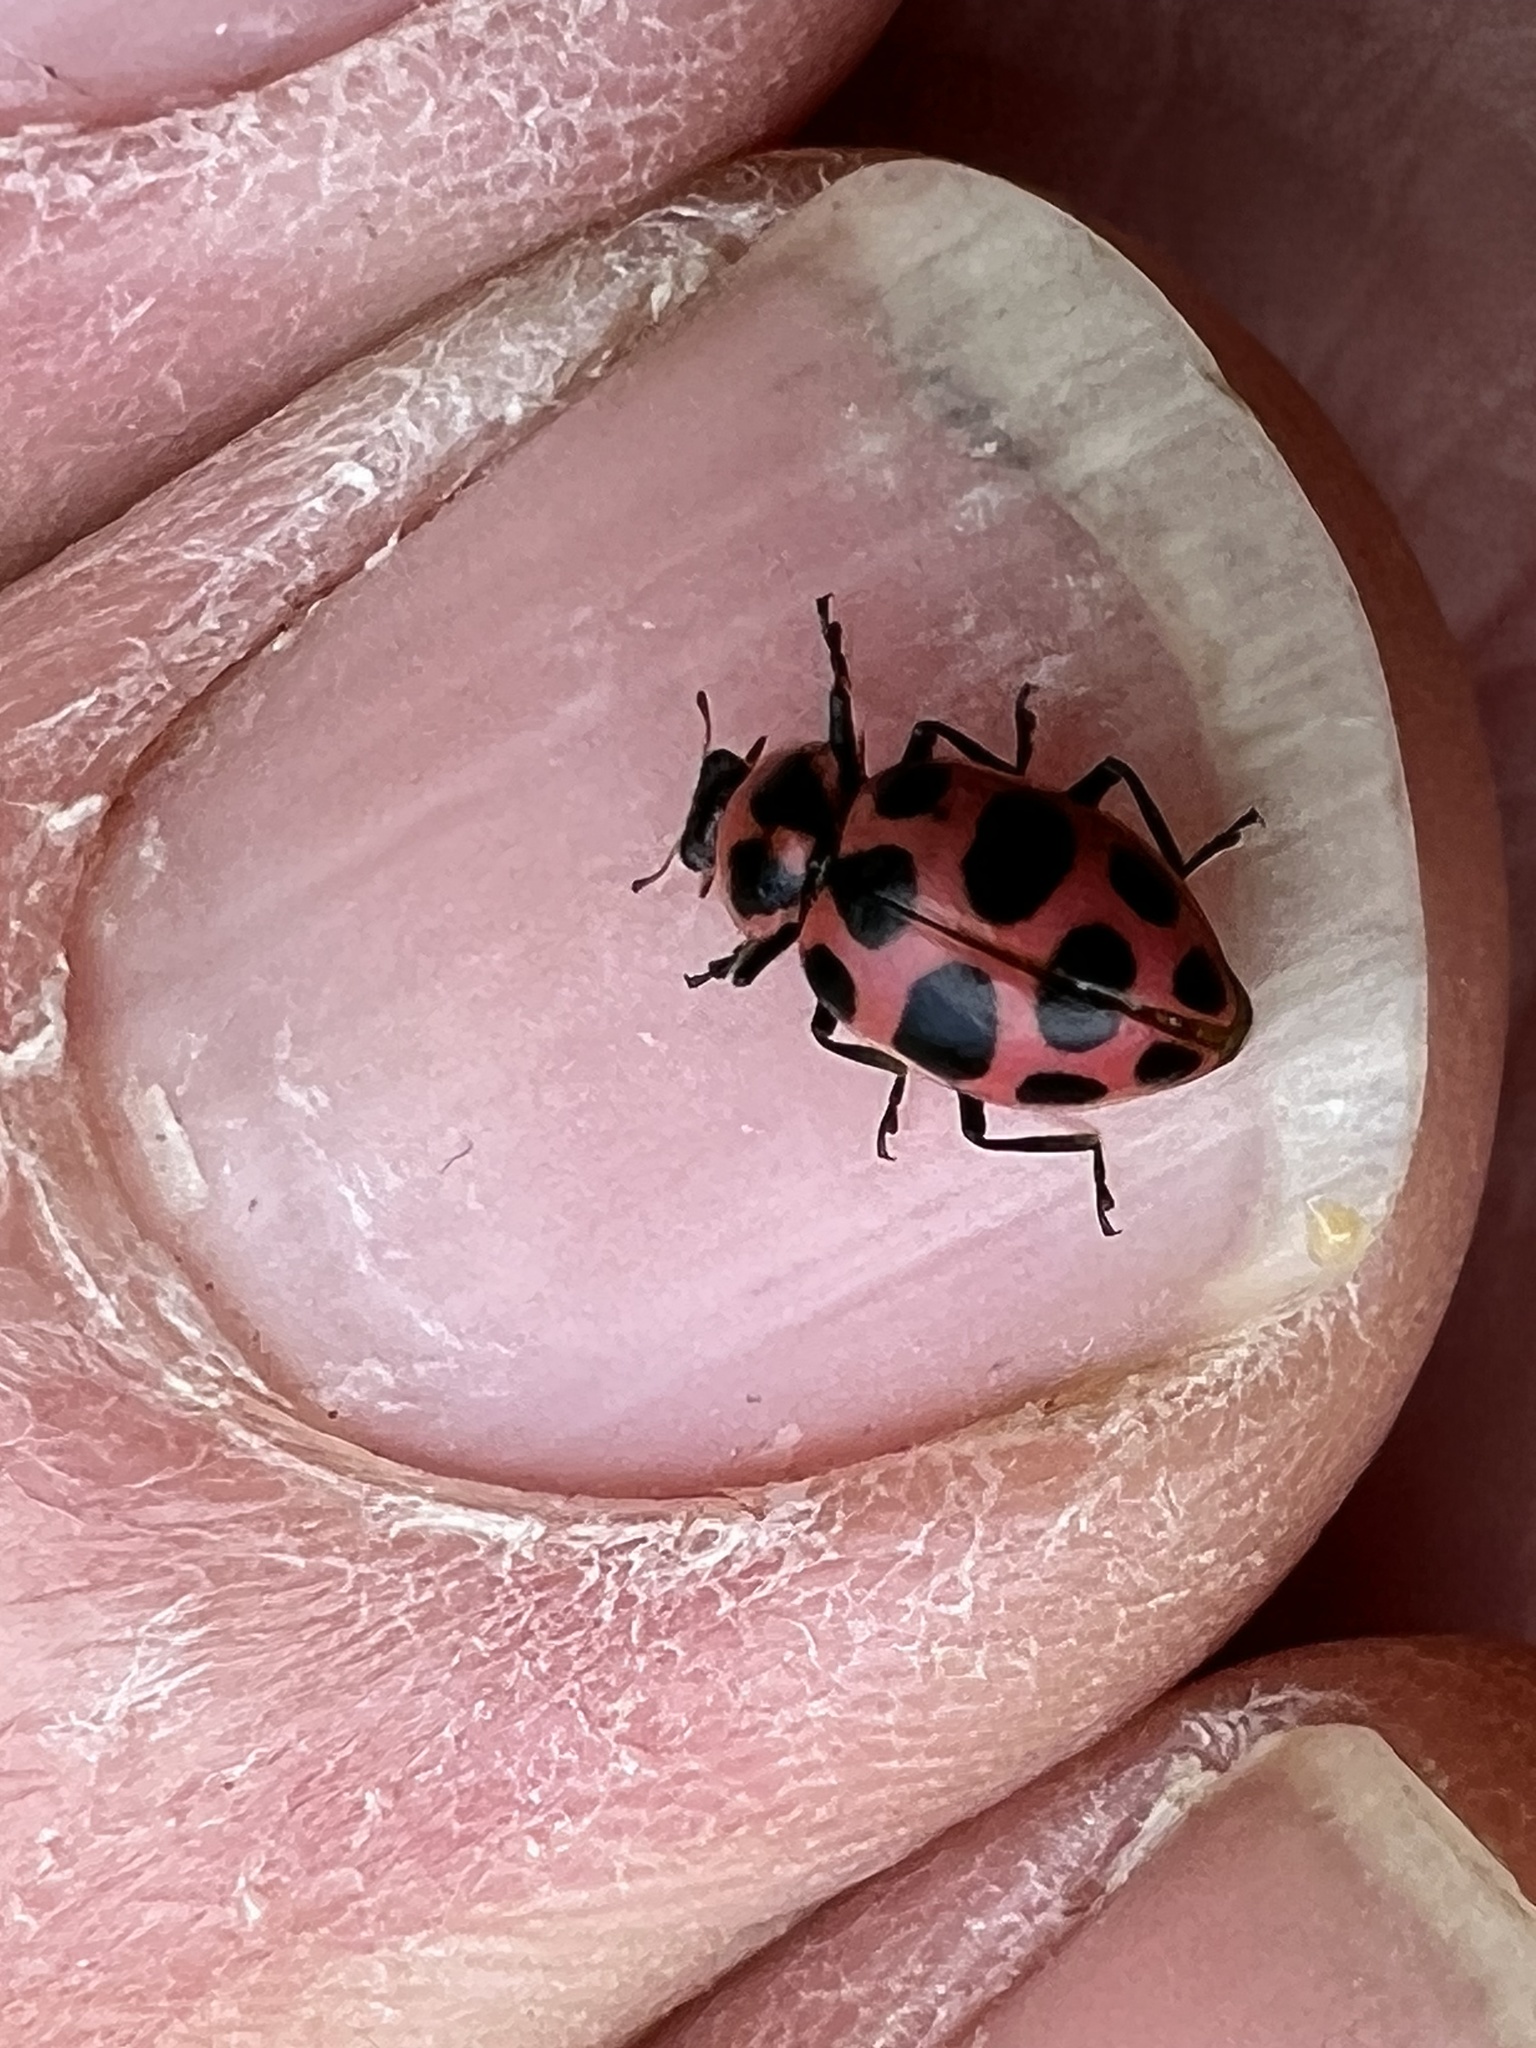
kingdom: Animalia
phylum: Arthropoda
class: Insecta
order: Coleoptera
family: Coccinellidae
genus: Coleomegilla
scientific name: Coleomegilla maculata
